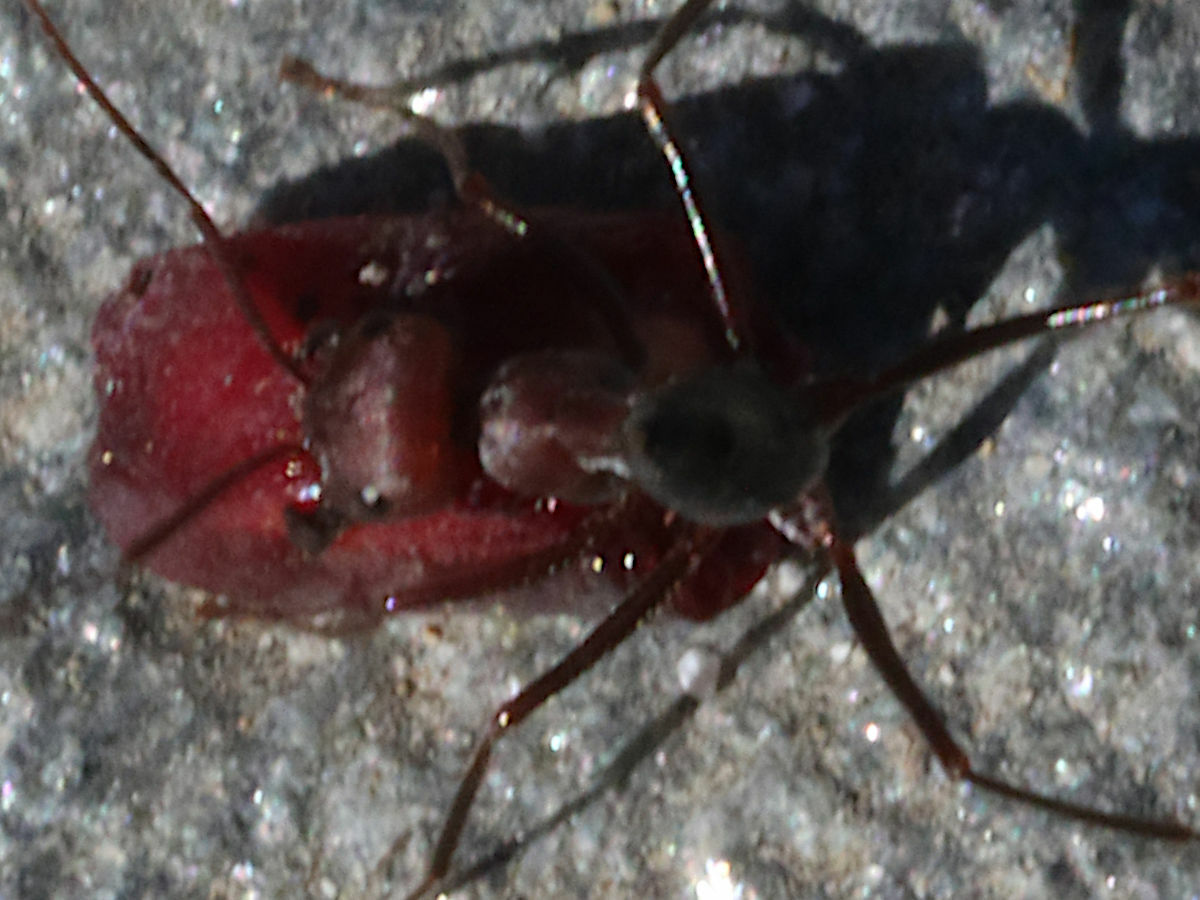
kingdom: Animalia
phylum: Arthropoda
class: Insecta
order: Hymenoptera
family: Formicidae
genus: Cataglyphis
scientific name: Cataglyphis nodus
